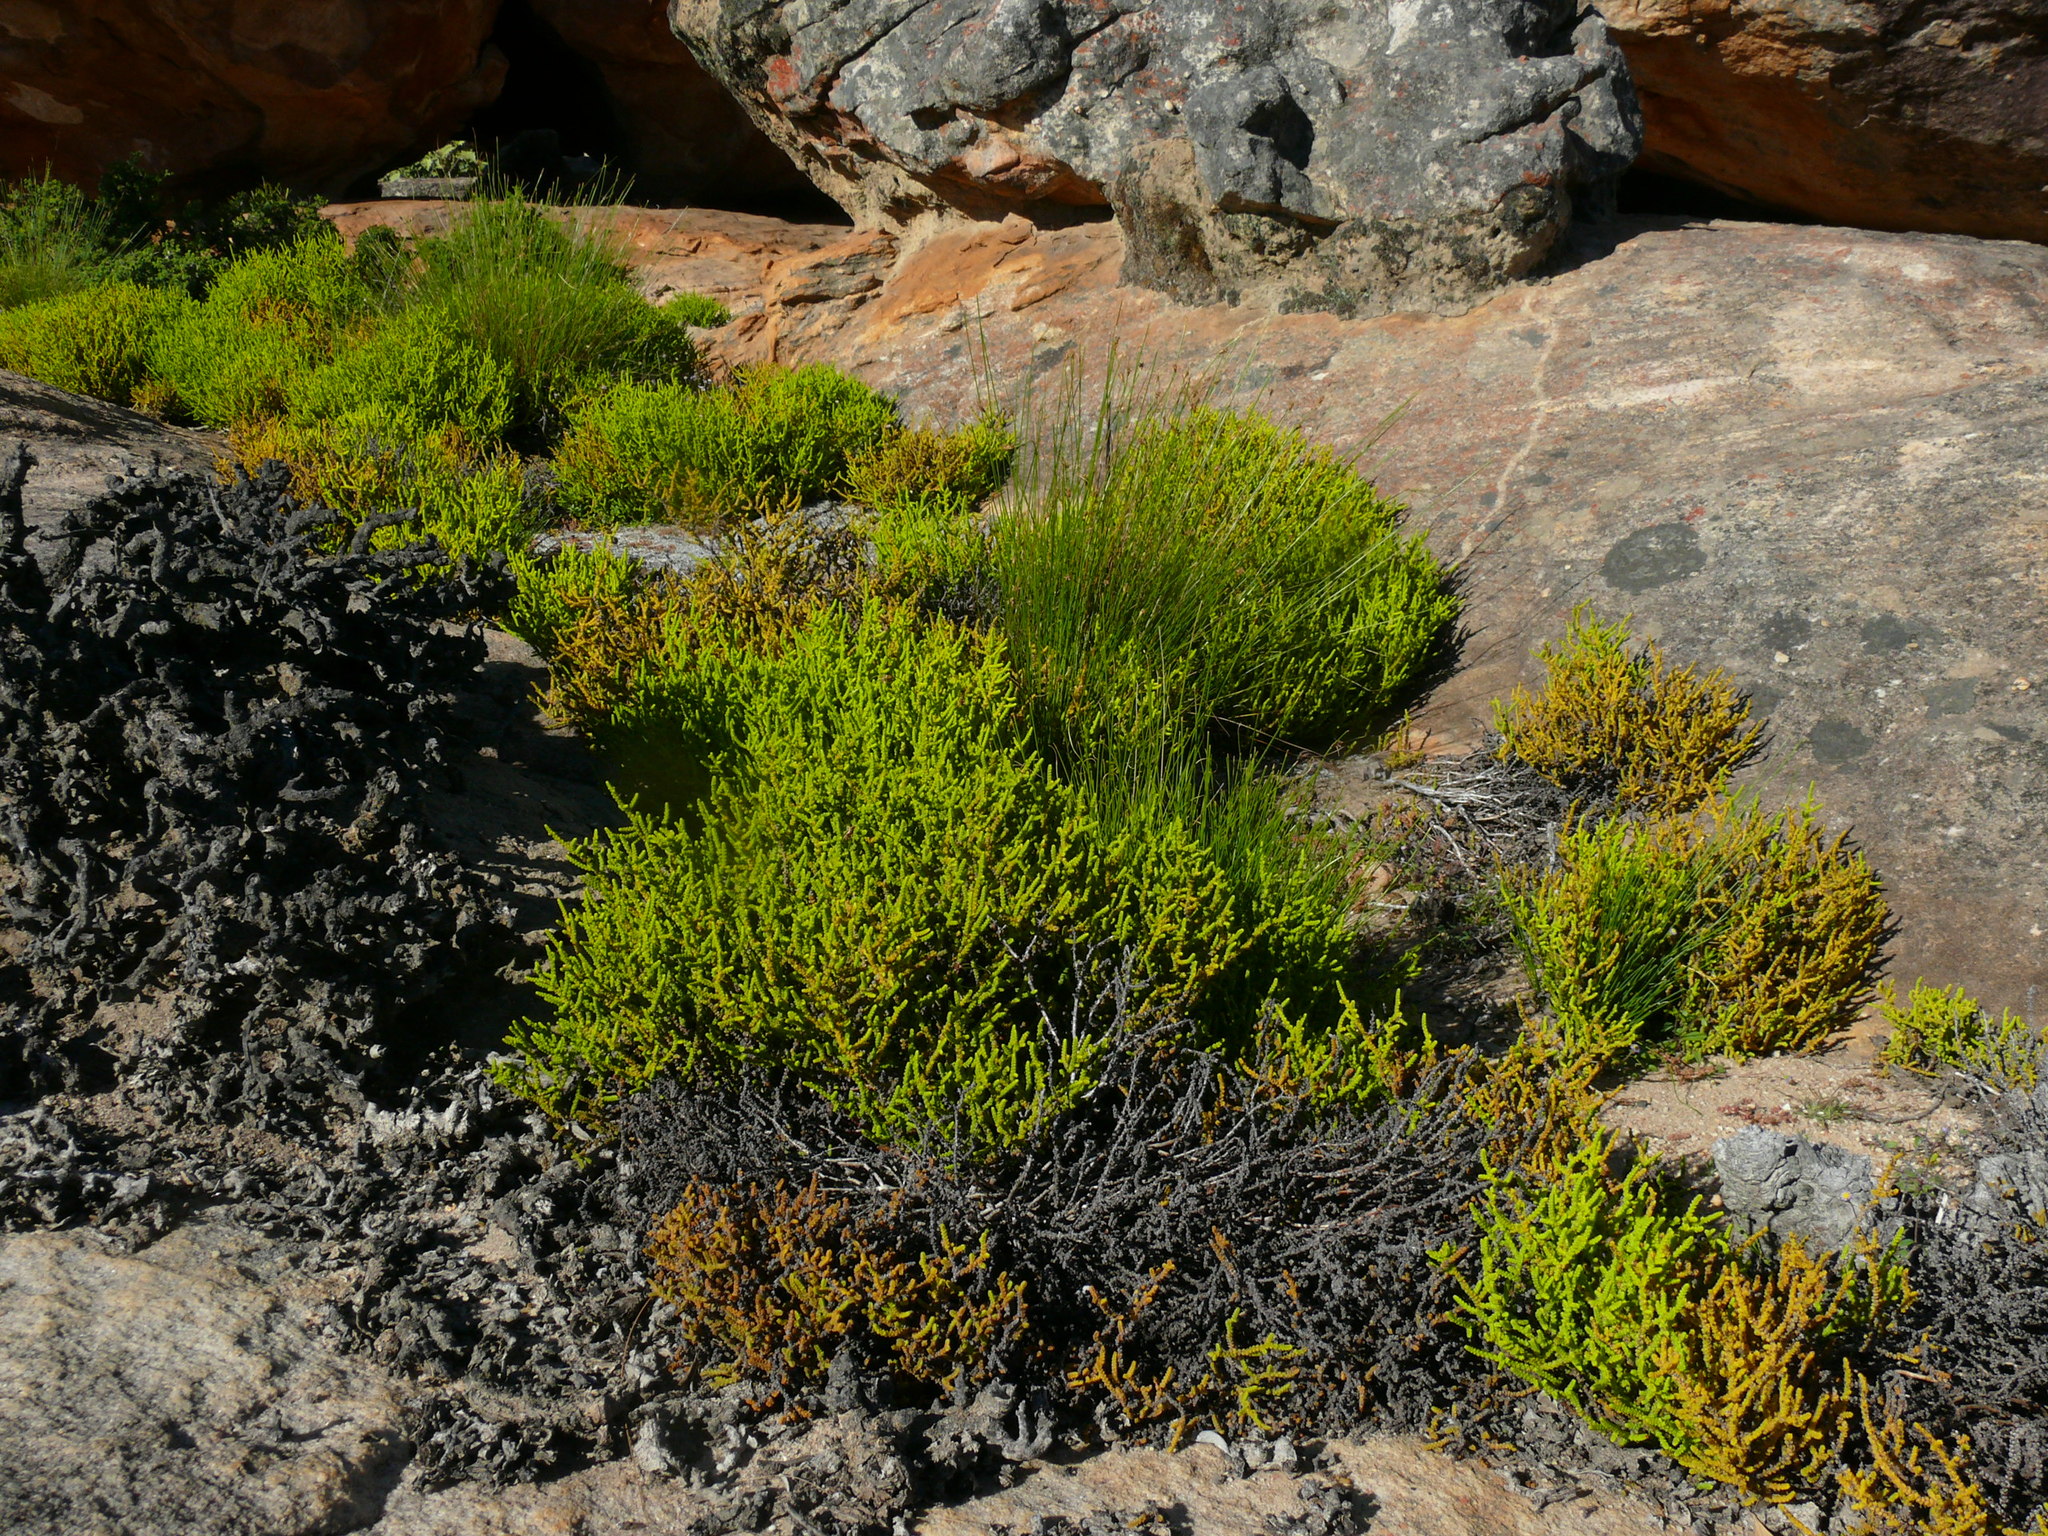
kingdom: Plantae
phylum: Tracheophyta
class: Magnoliopsida
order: Saxifragales
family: Crassulaceae
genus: Crassula
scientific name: Crassula muscosa
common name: Toy-cypress
